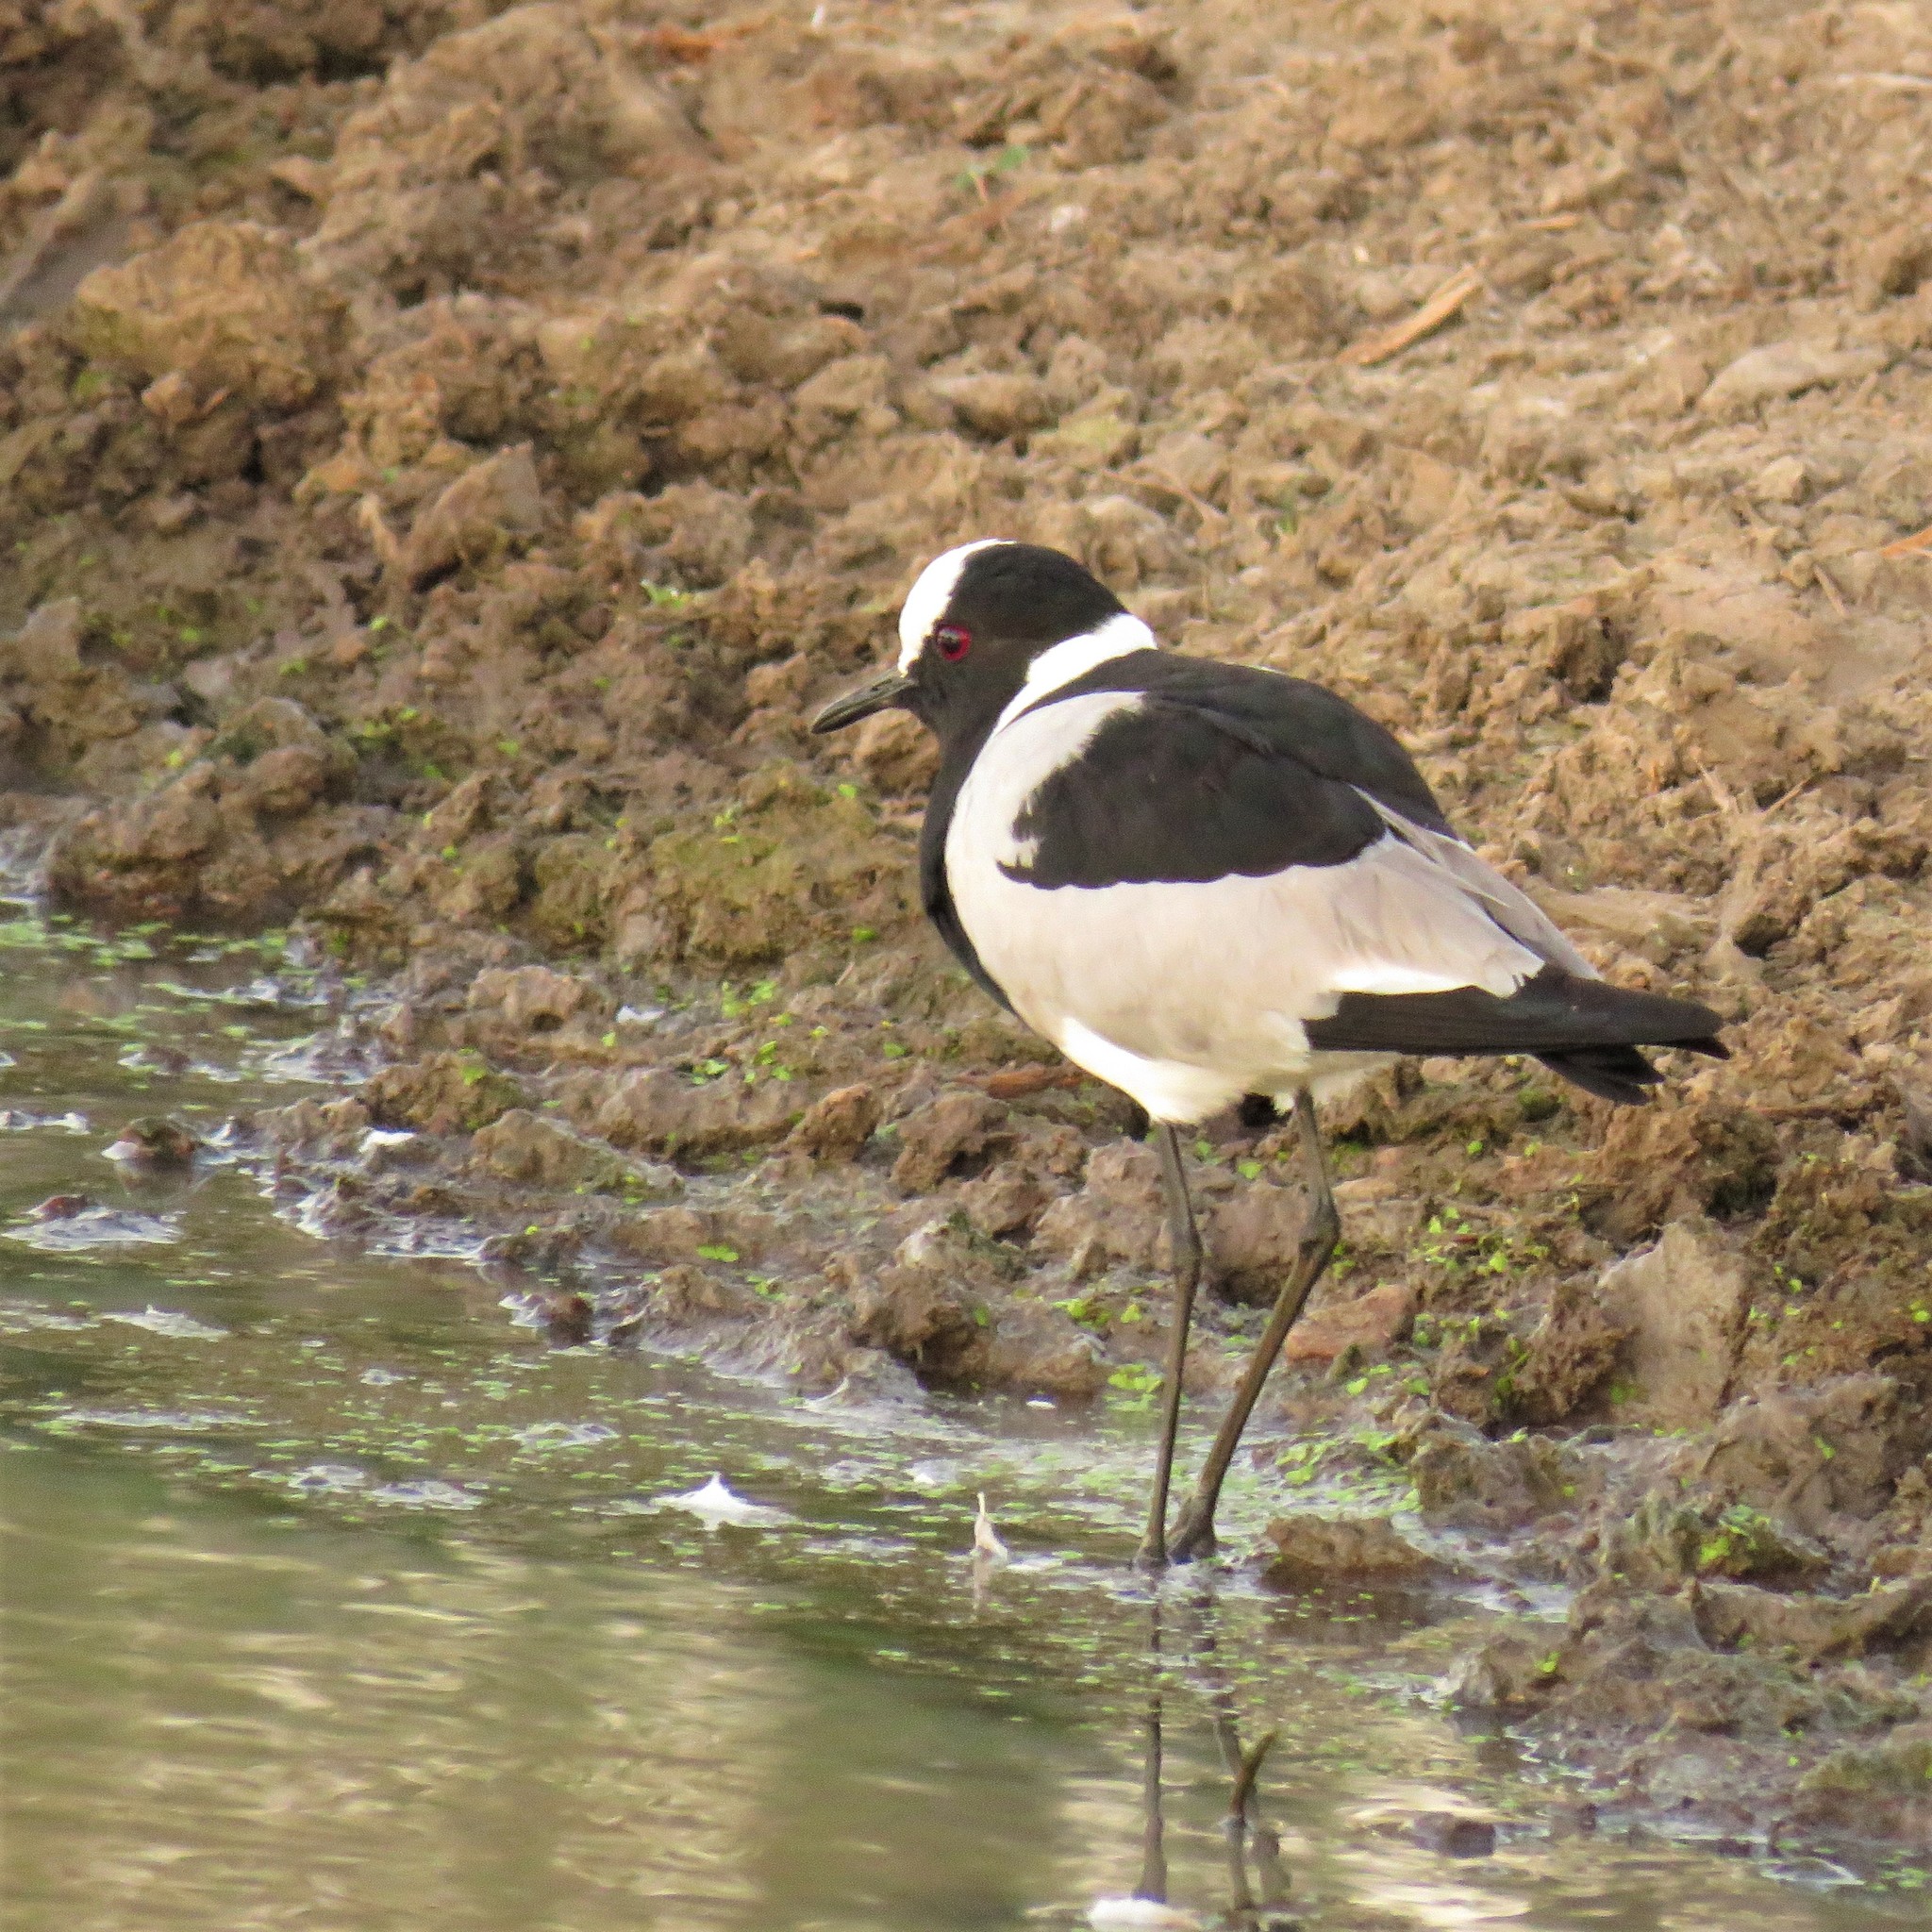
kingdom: Animalia
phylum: Chordata
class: Aves
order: Charadriiformes
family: Charadriidae
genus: Vanellus
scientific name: Vanellus armatus
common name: Blacksmith lapwing
